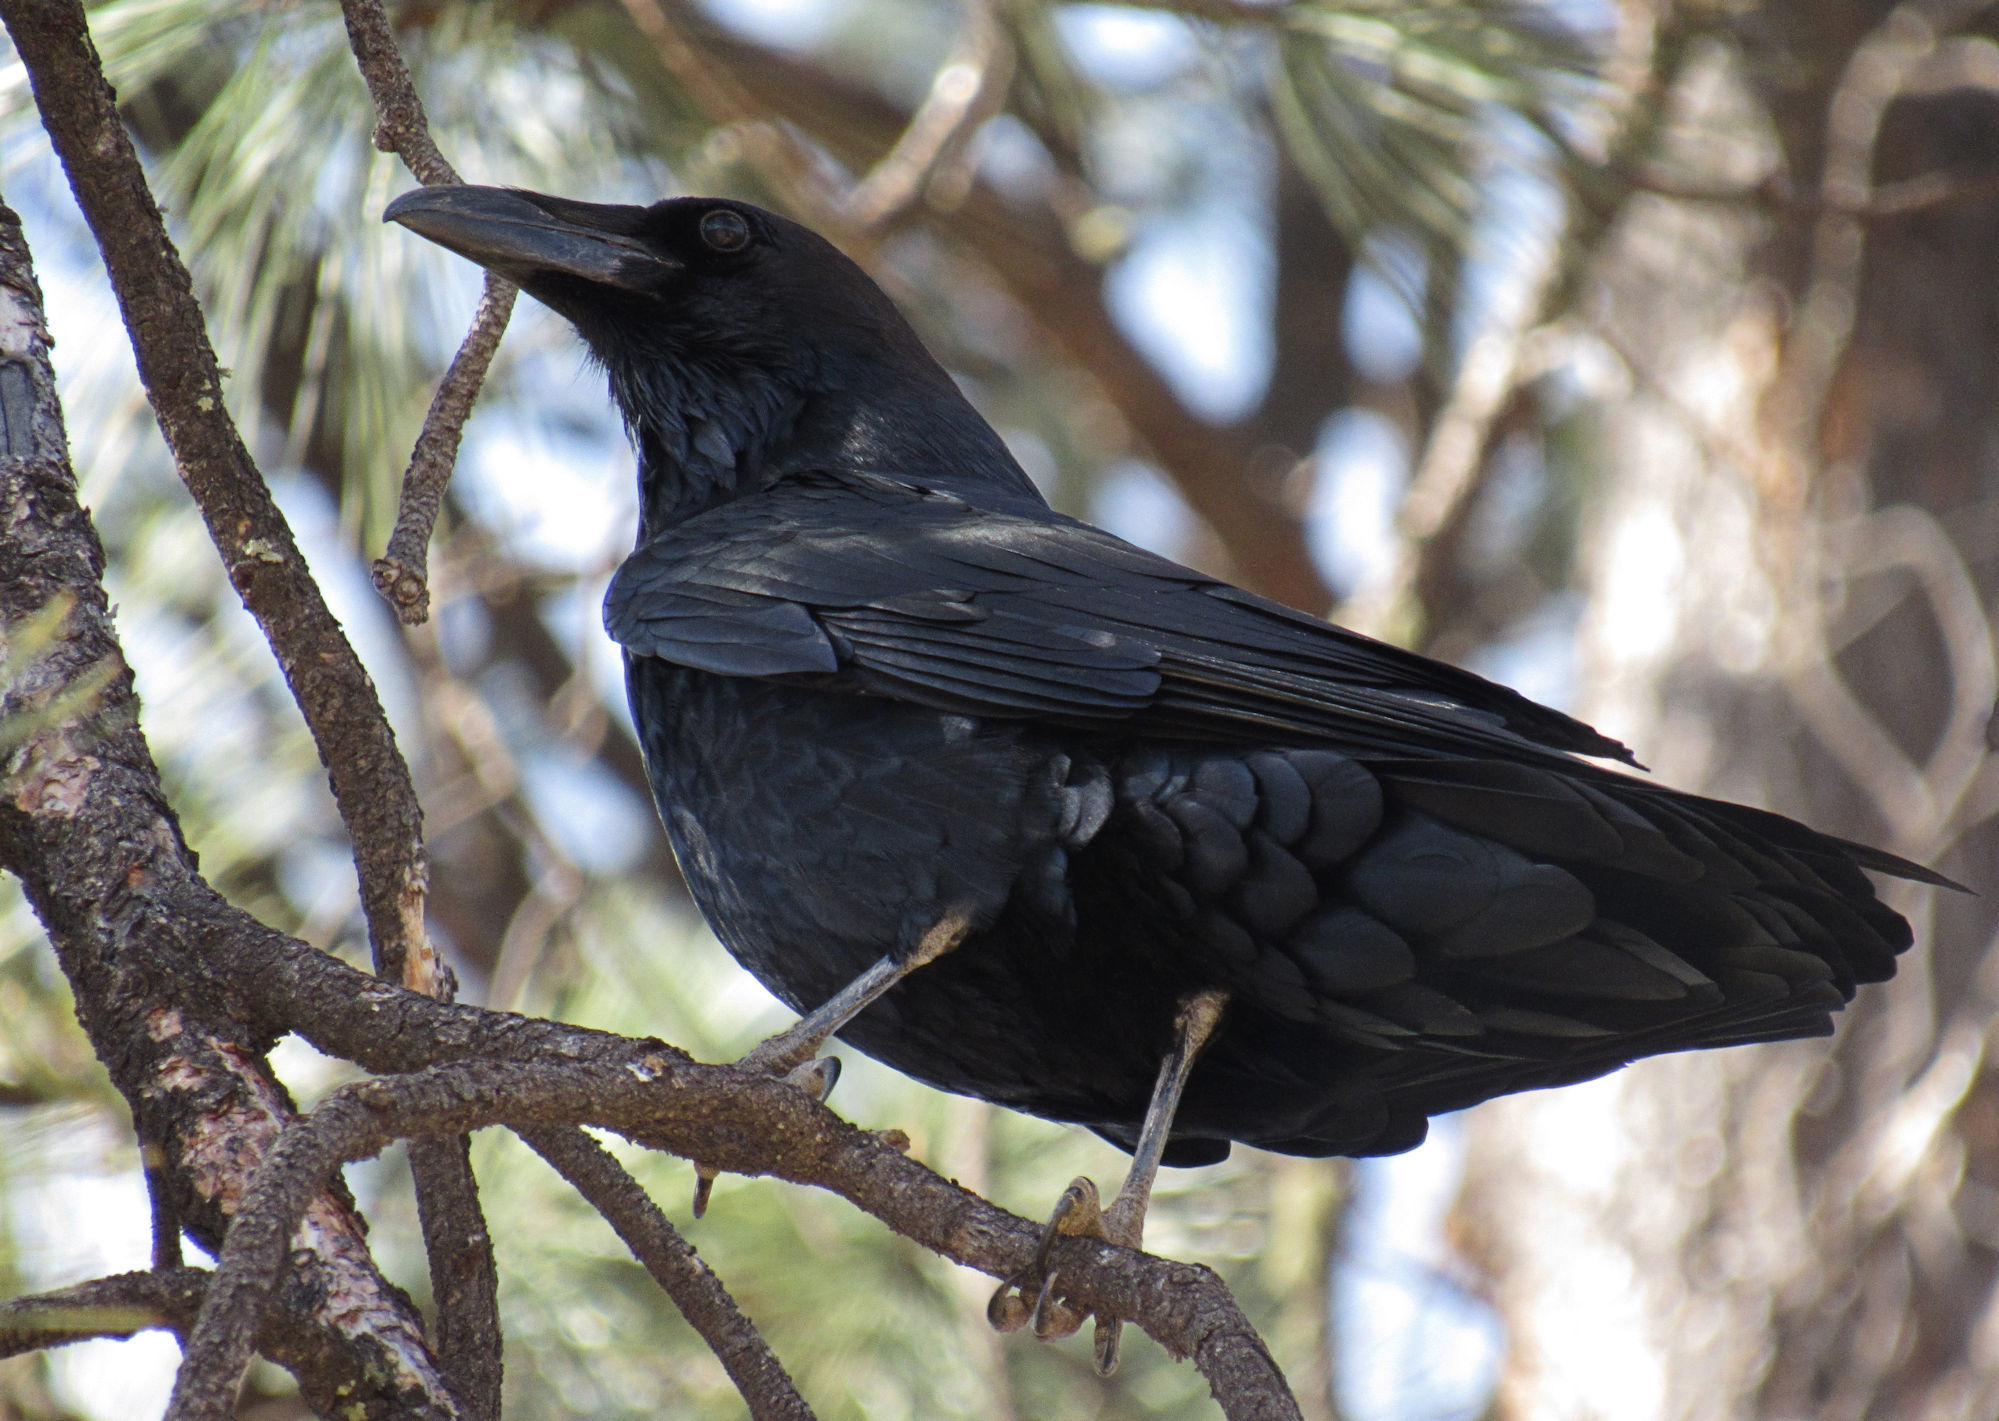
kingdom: Animalia
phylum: Chordata
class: Aves
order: Passeriformes
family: Corvidae
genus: Corvus
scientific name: Corvus corax
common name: Common raven
